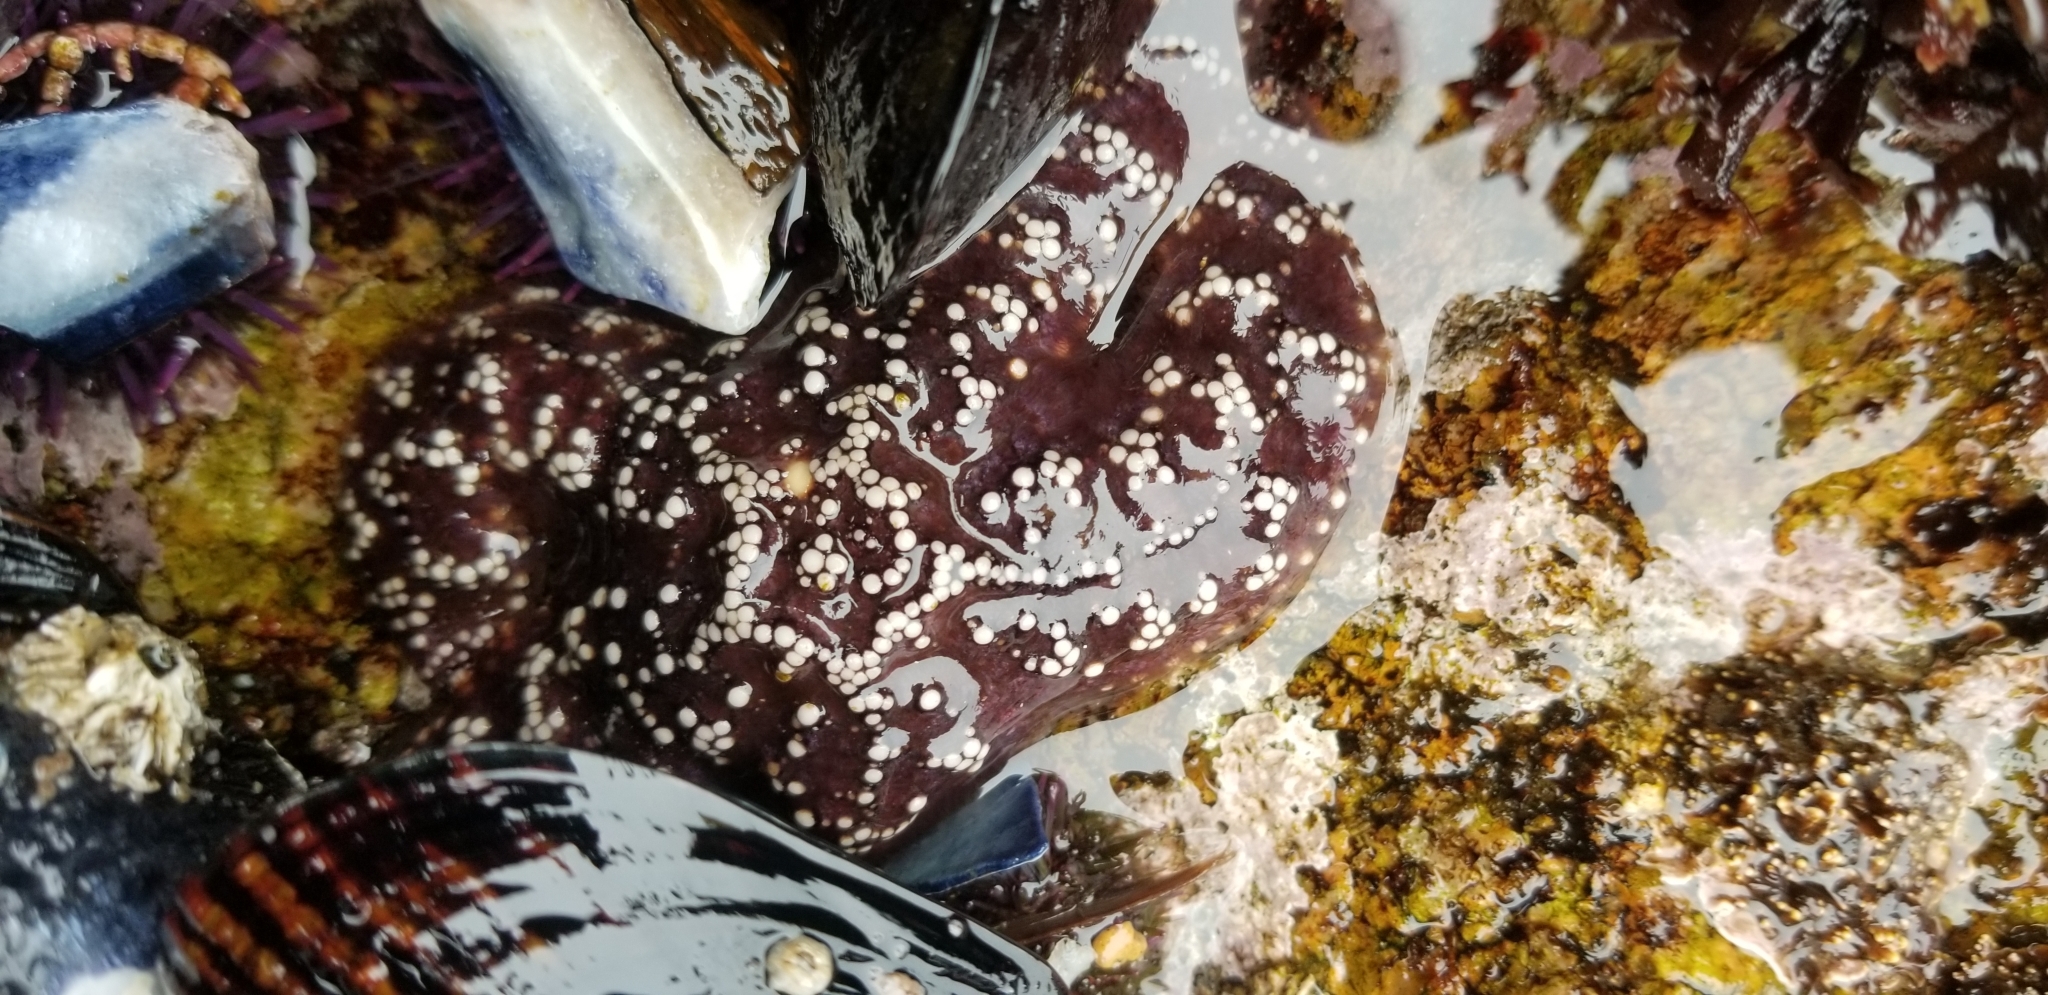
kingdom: Animalia
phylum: Echinodermata
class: Asteroidea
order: Forcipulatida
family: Asteriidae
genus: Pisaster
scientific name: Pisaster ochraceus
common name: Ochre stars
